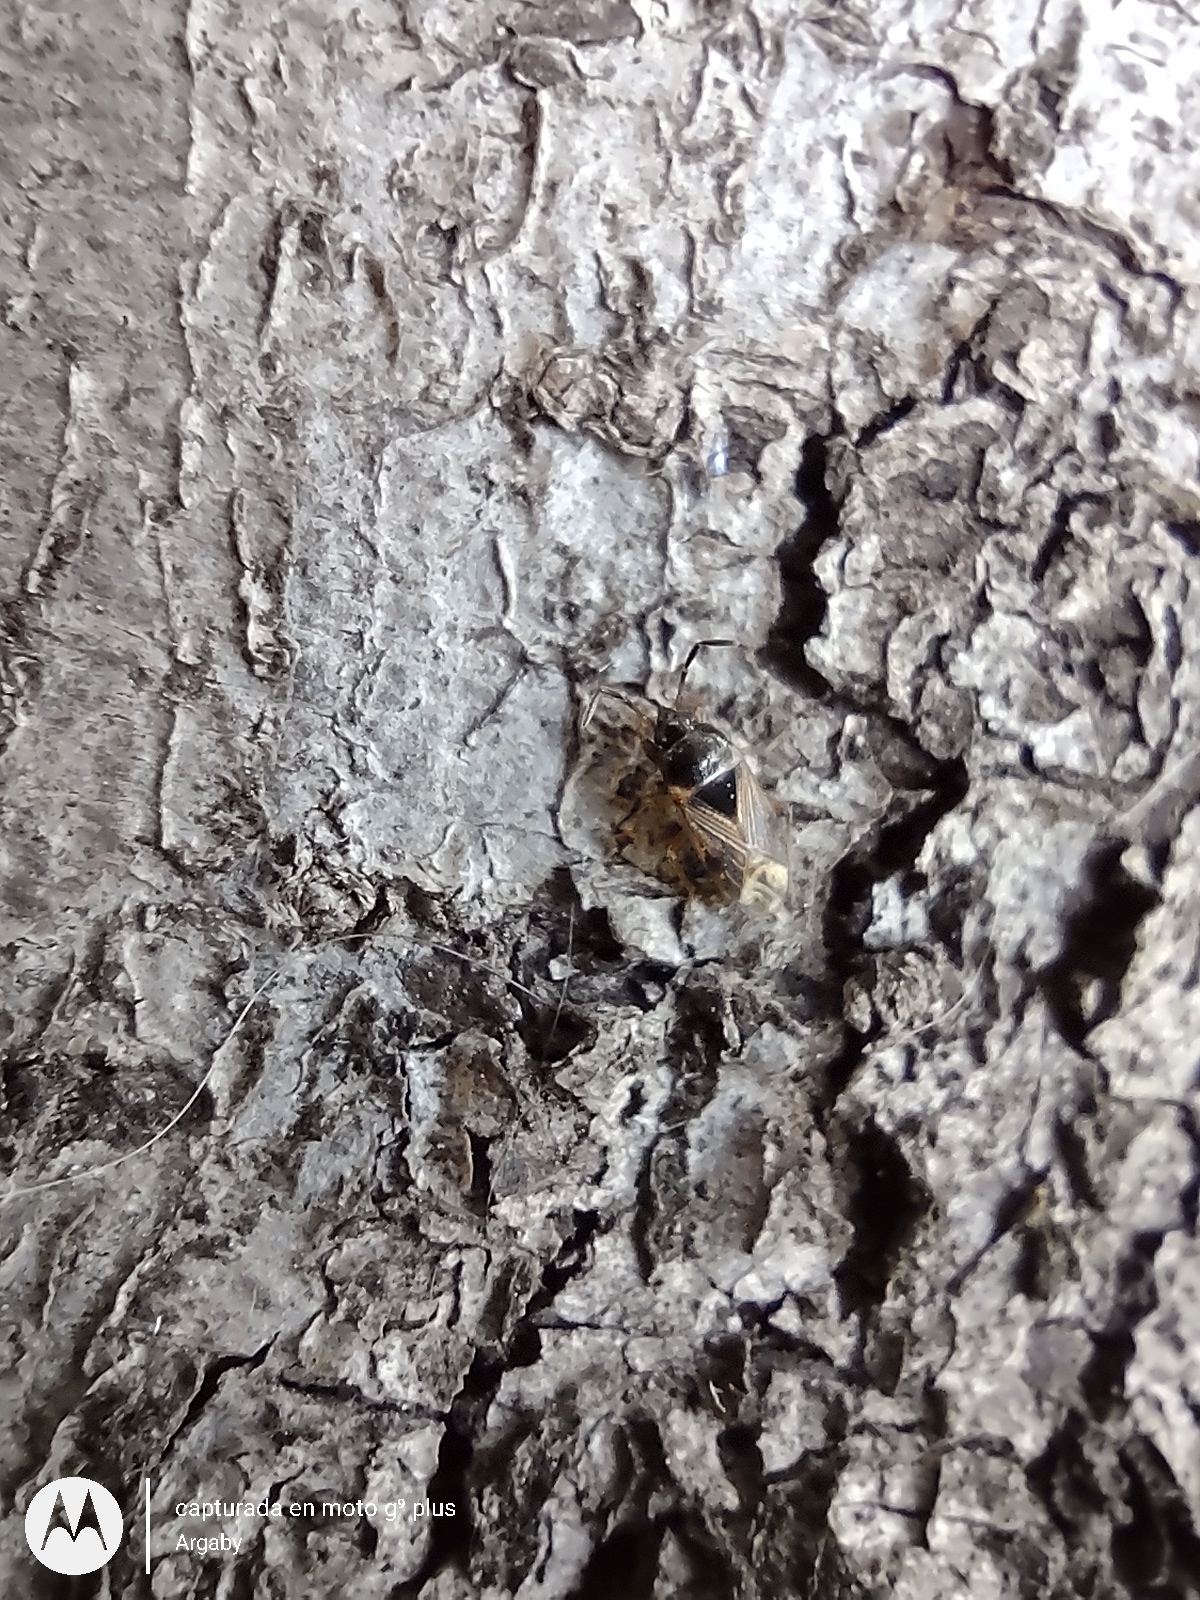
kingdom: Animalia
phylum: Arthropoda
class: Insecta
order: Hemiptera
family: Rhyparochromidae
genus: Cryphula
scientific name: Cryphula humeralis
